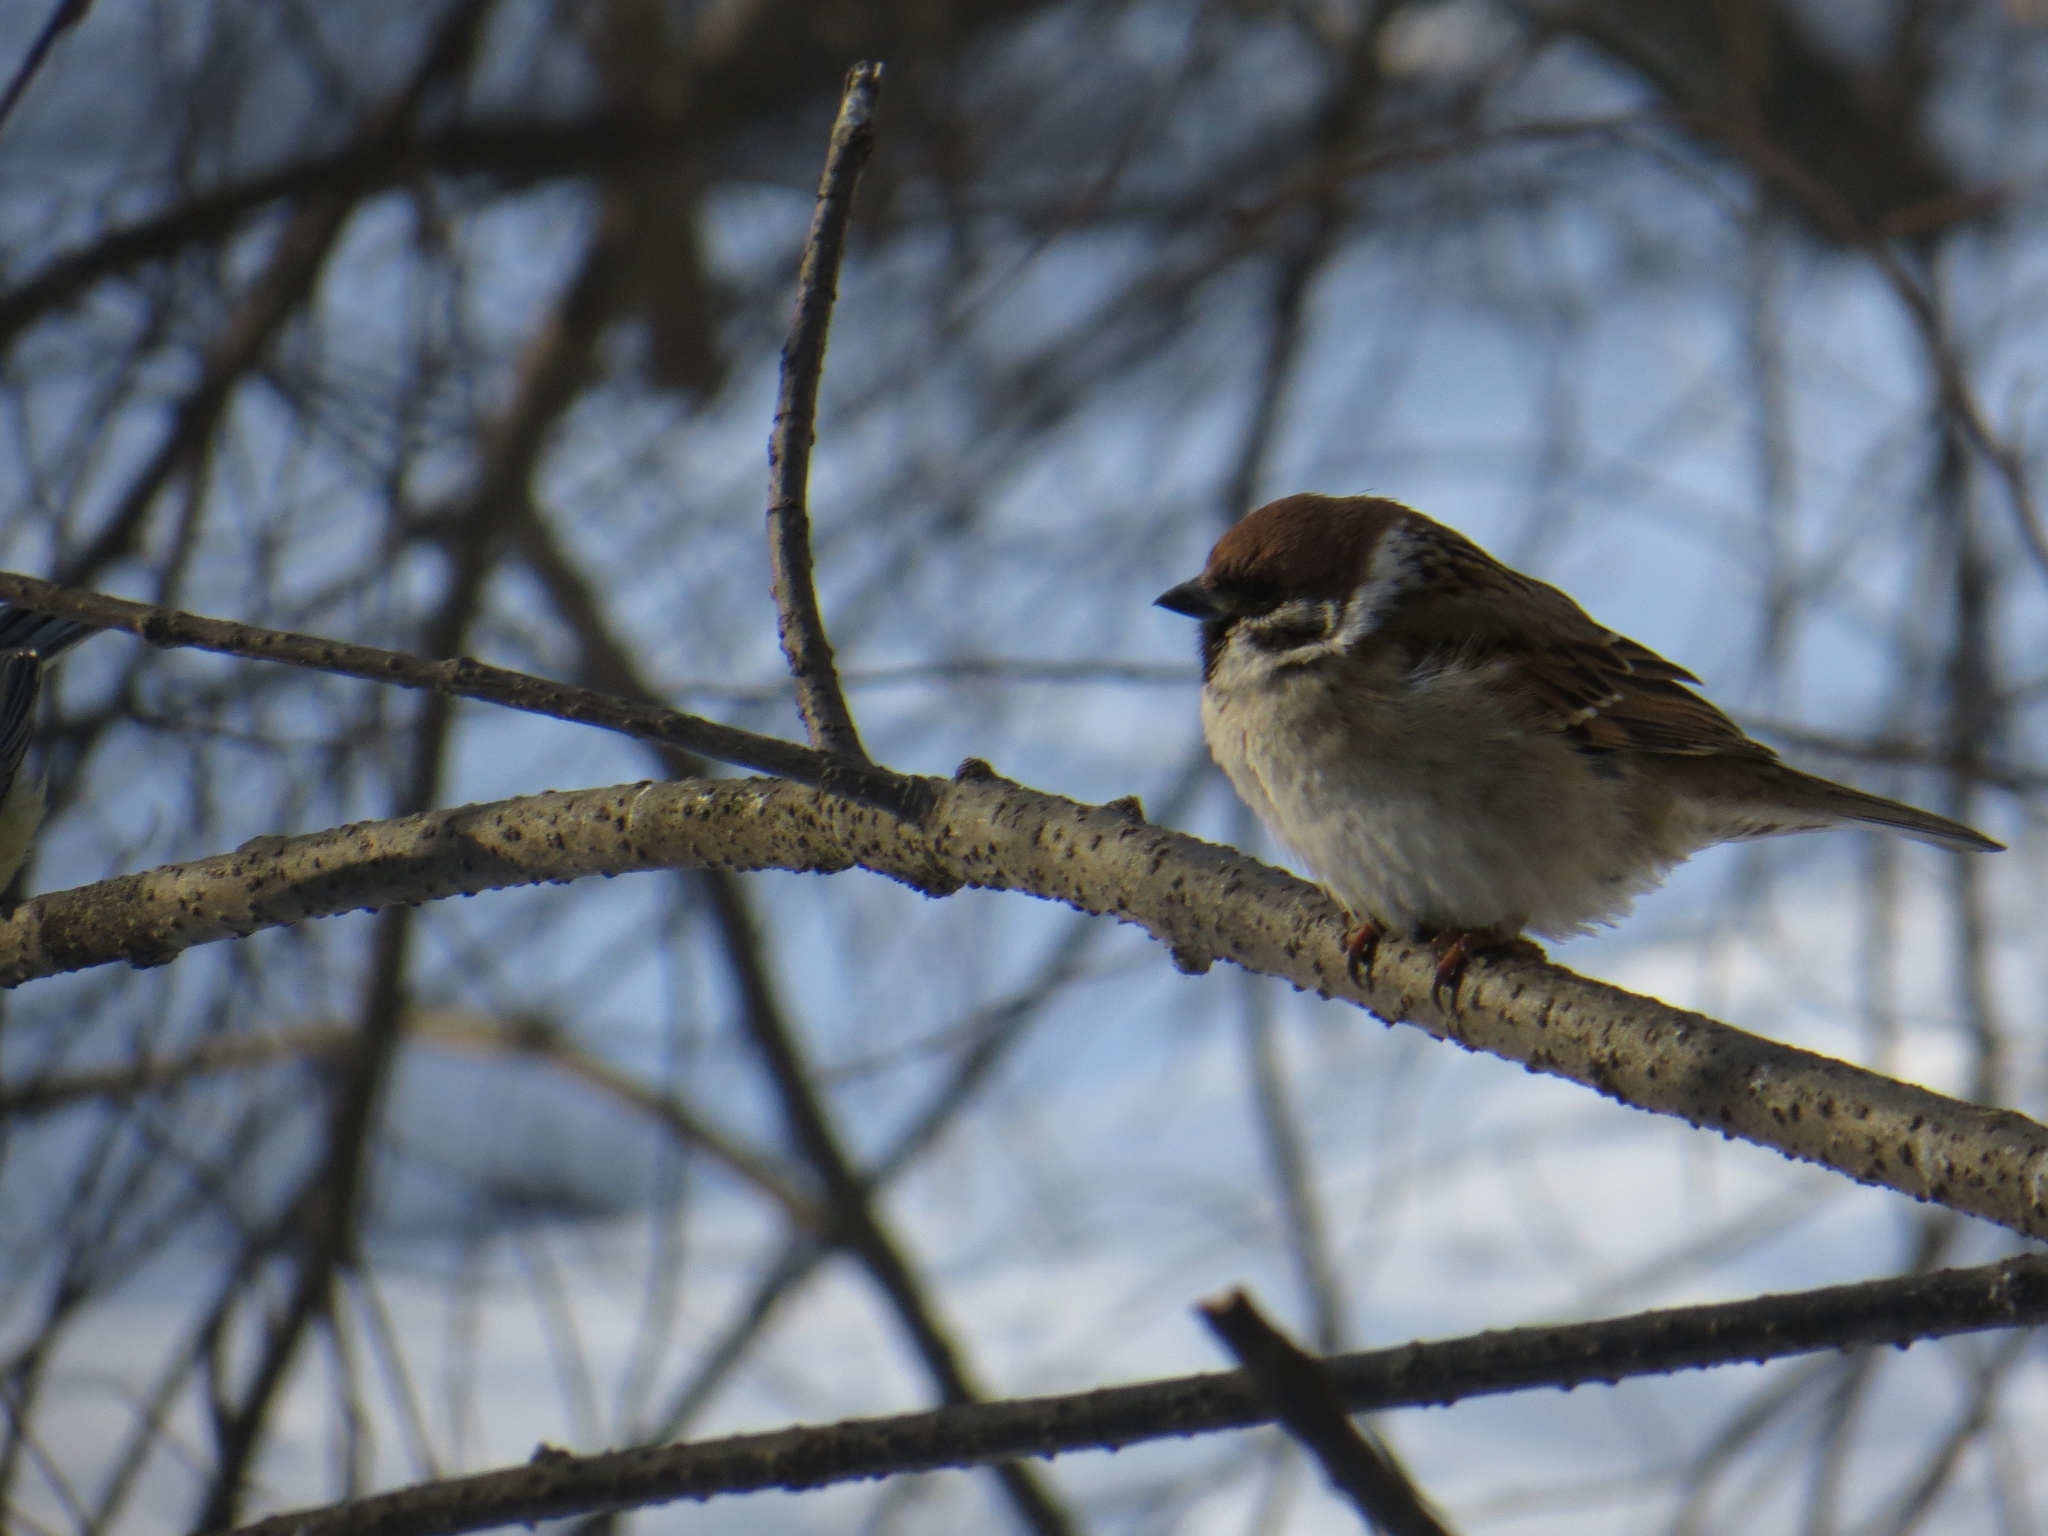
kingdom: Animalia
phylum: Chordata
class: Aves
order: Passeriformes
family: Passeridae
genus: Passer
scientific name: Passer montanus
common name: Eurasian tree sparrow
